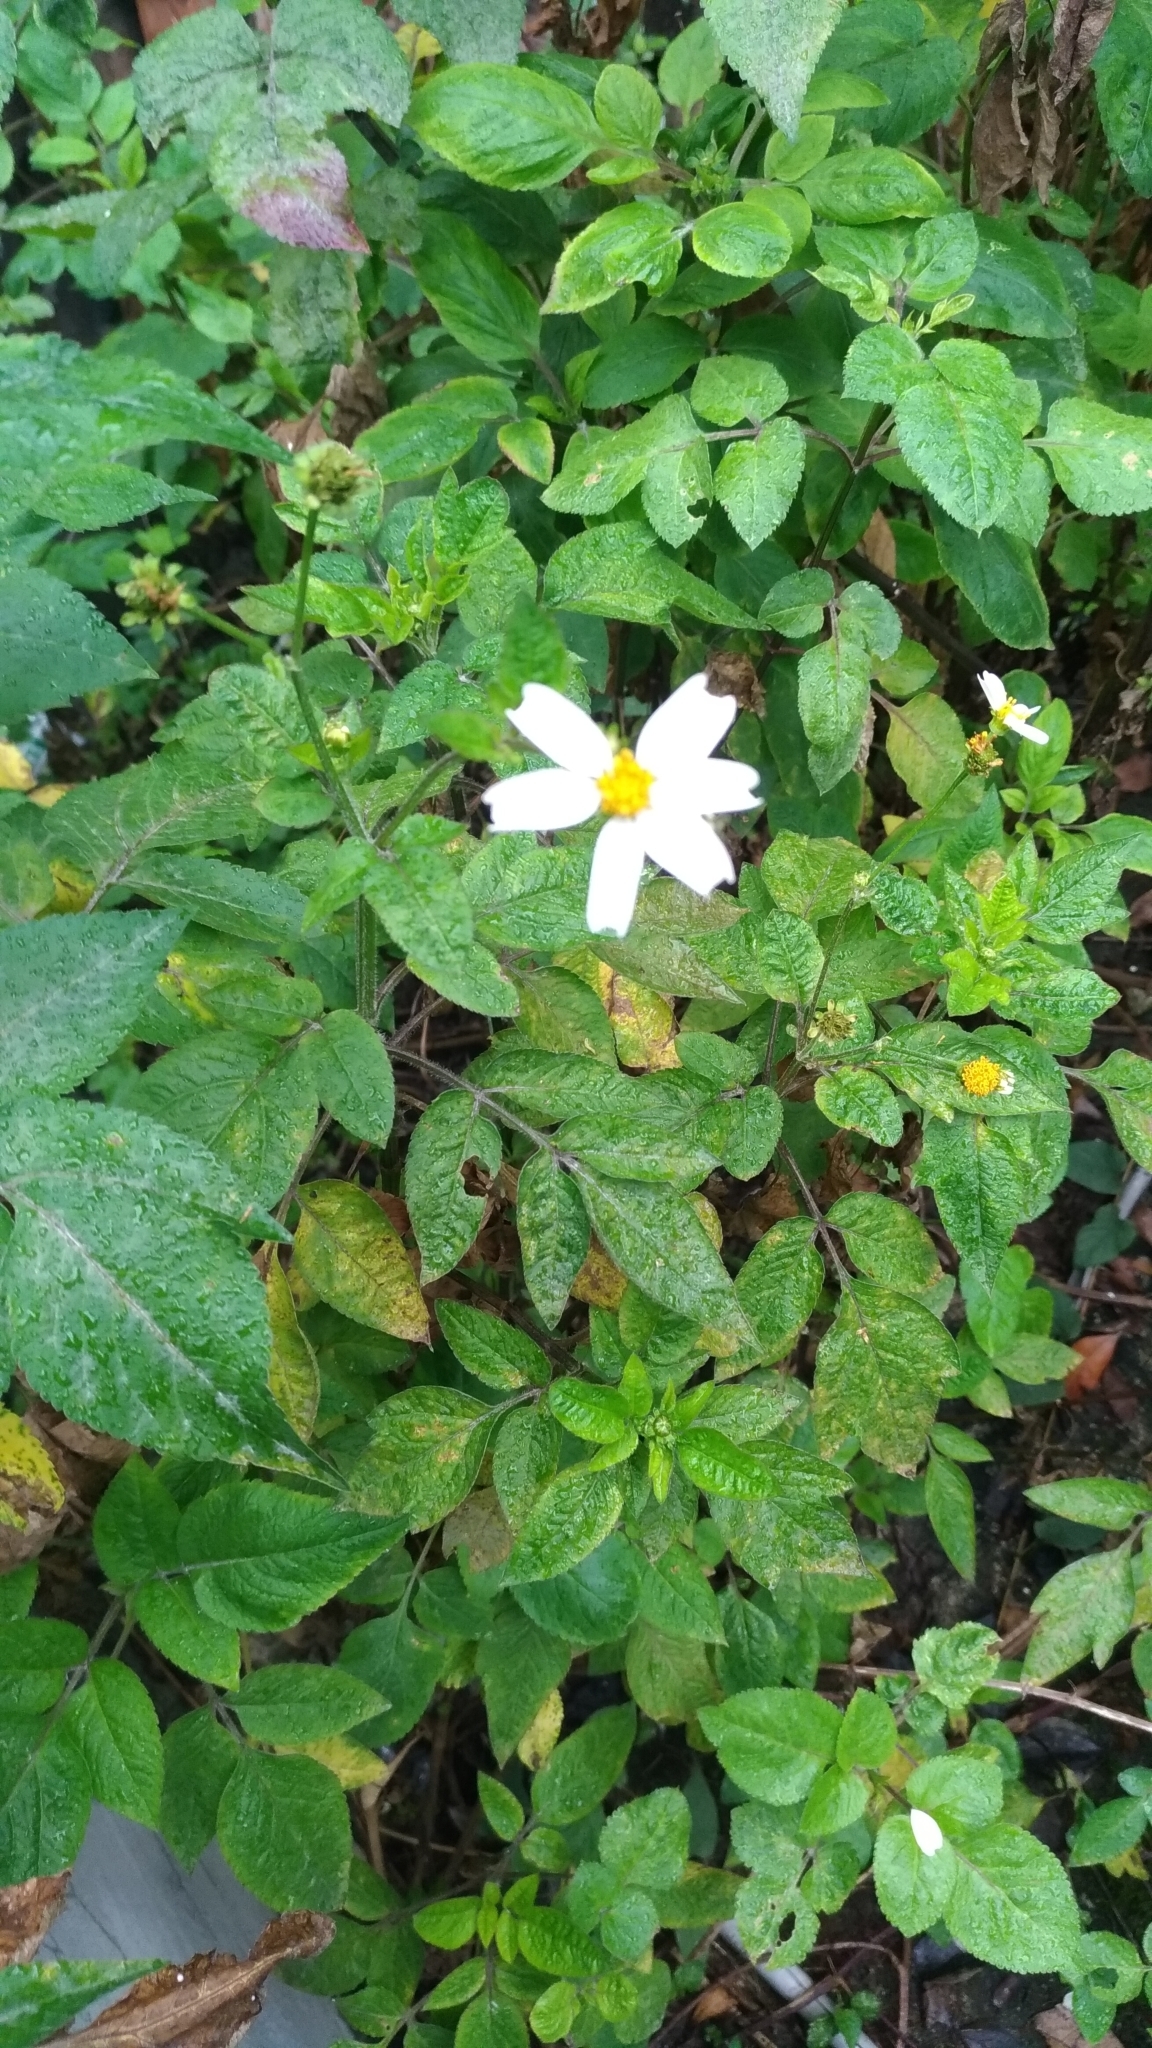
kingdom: Plantae
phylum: Tracheophyta
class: Magnoliopsida
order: Asterales
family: Asteraceae
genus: Bidens
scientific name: Bidens alba
